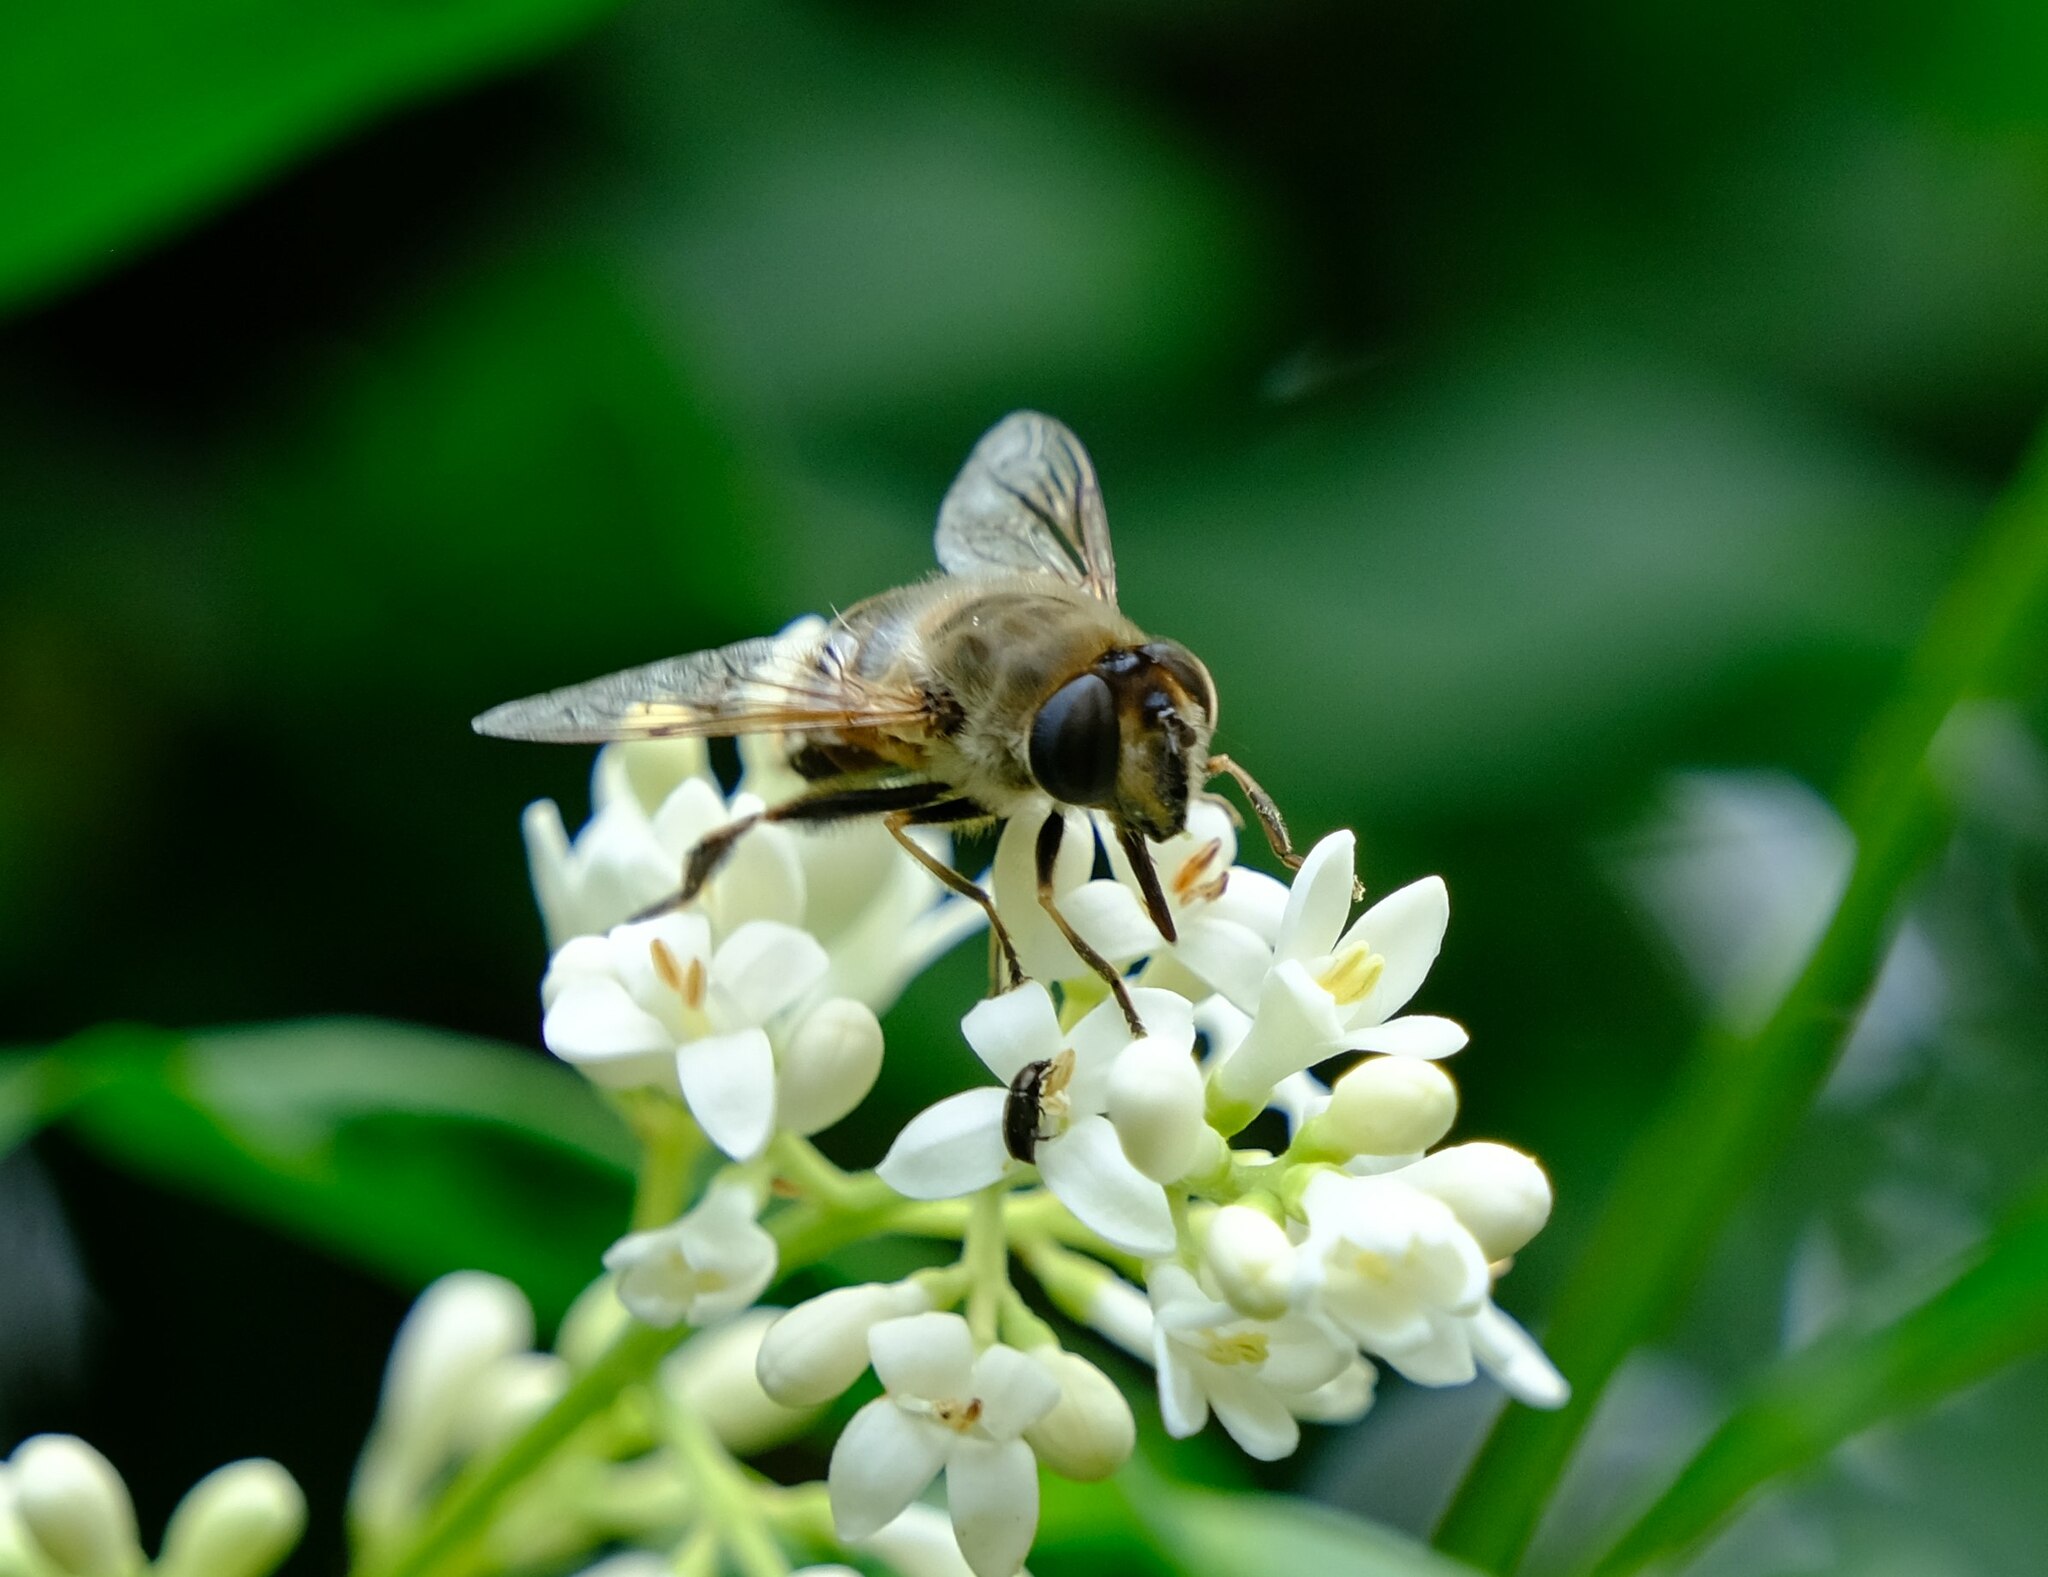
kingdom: Animalia
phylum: Arthropoda
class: Insecta
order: Diptera
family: Syrphidae
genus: Eristalis
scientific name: Eristalis tenax
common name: Drone fly
